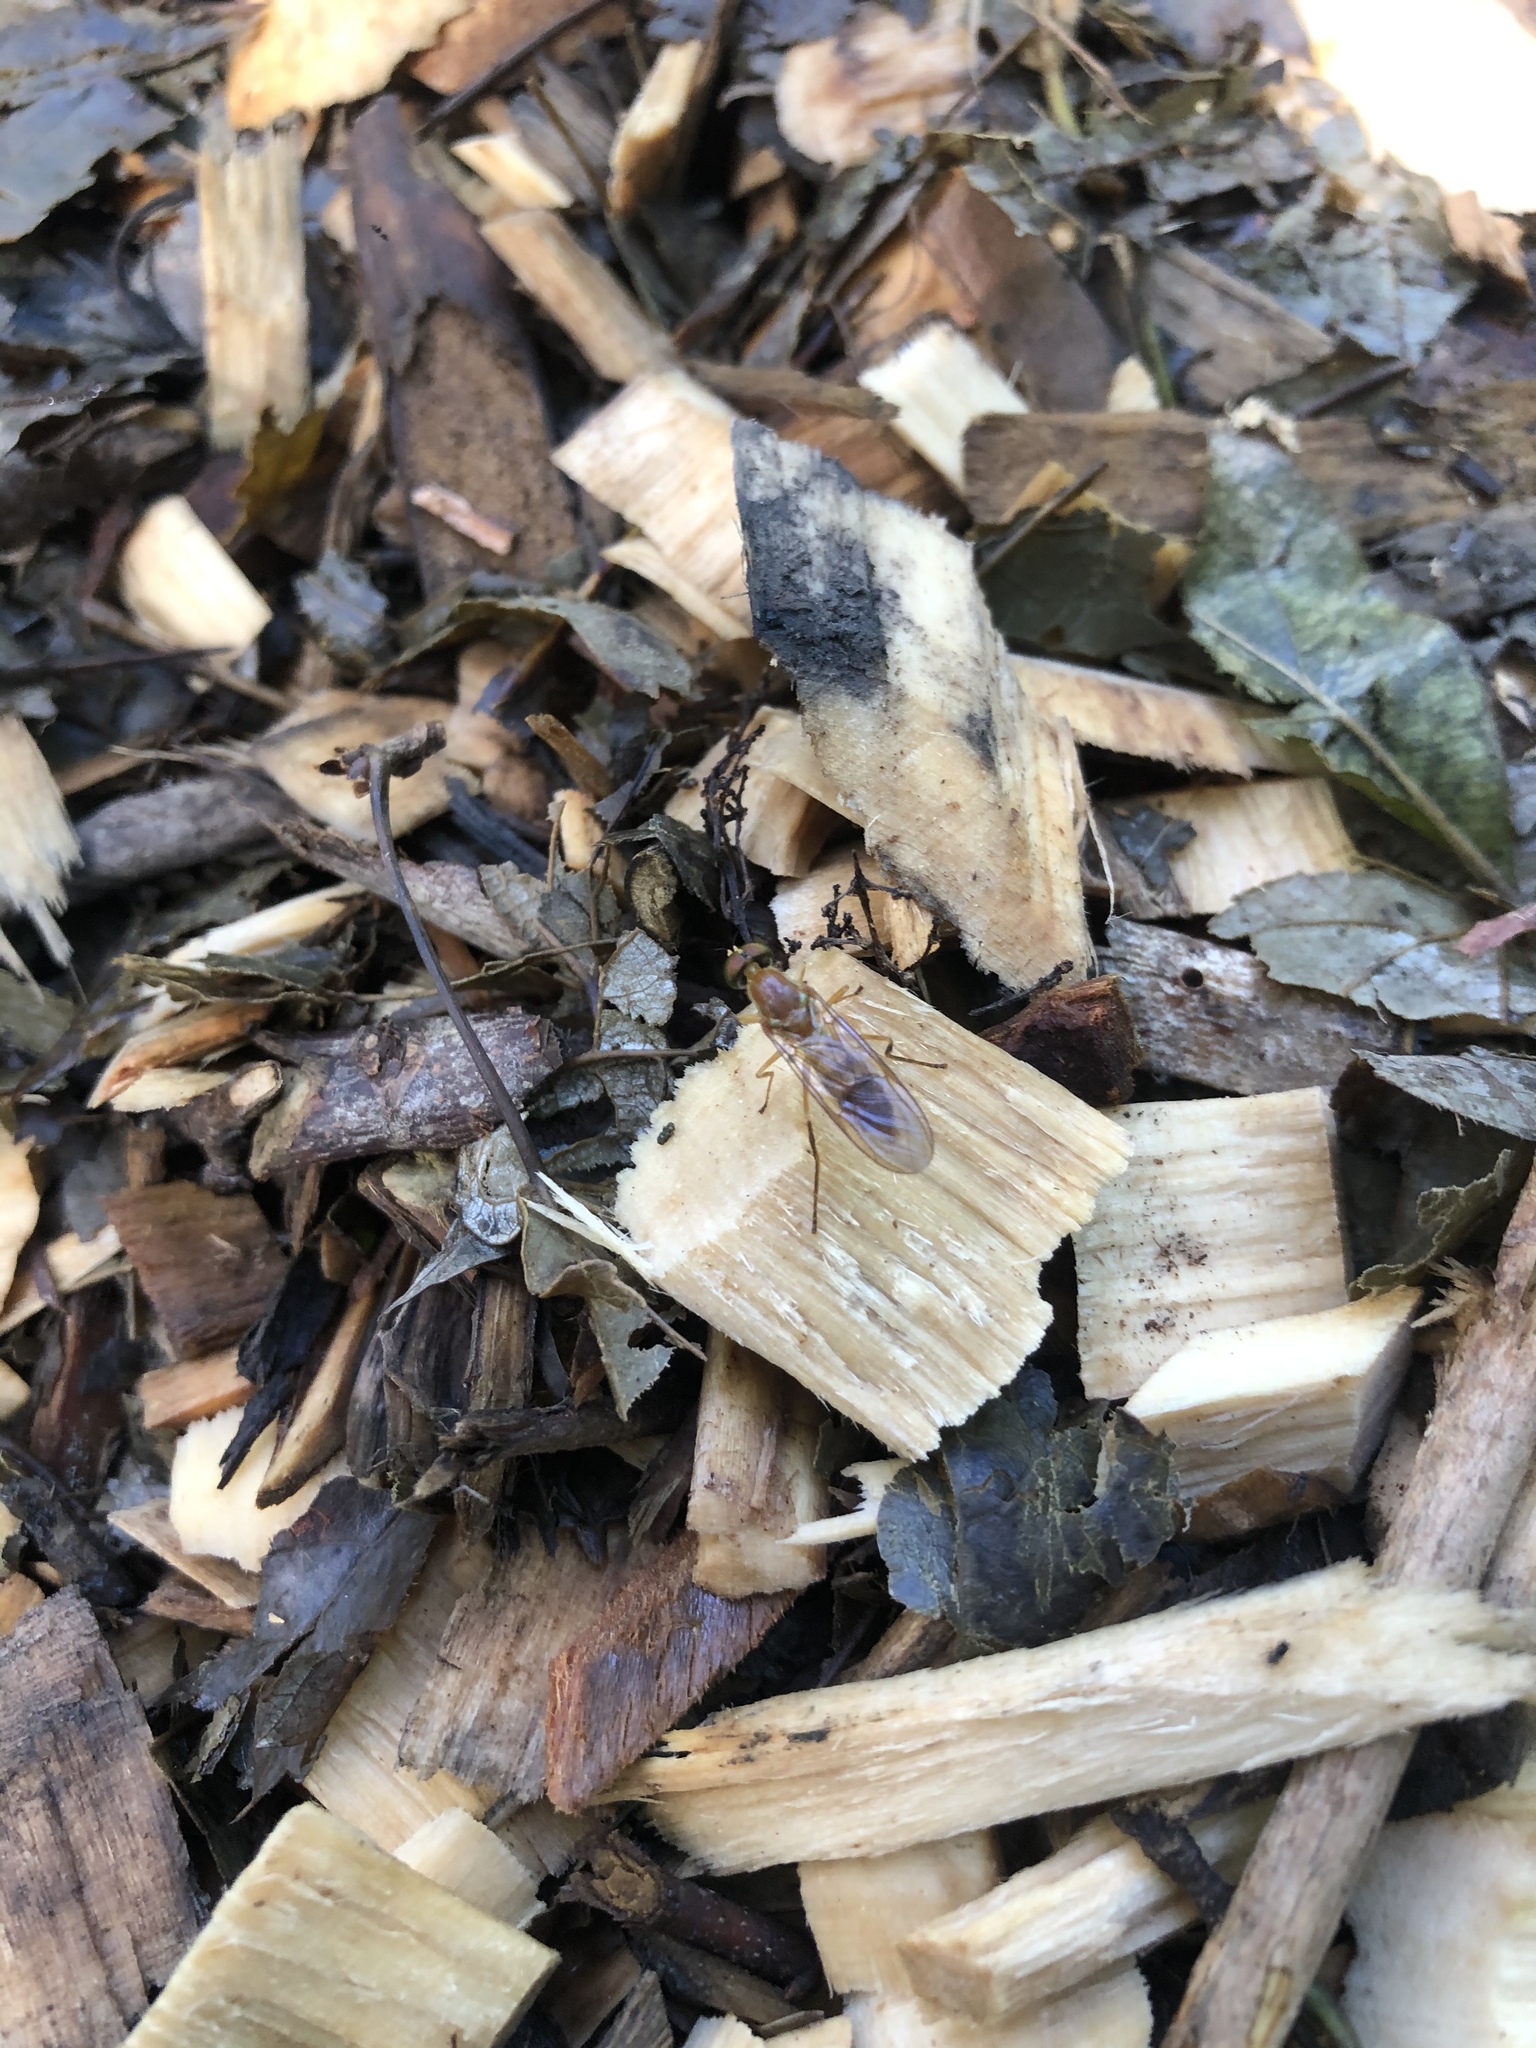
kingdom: Animalia
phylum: Arthropoda
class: Insecta
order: Diptera
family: Stratiomyidae
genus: Ptecticus
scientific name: Ptecticus trivittatus
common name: Compost fly
